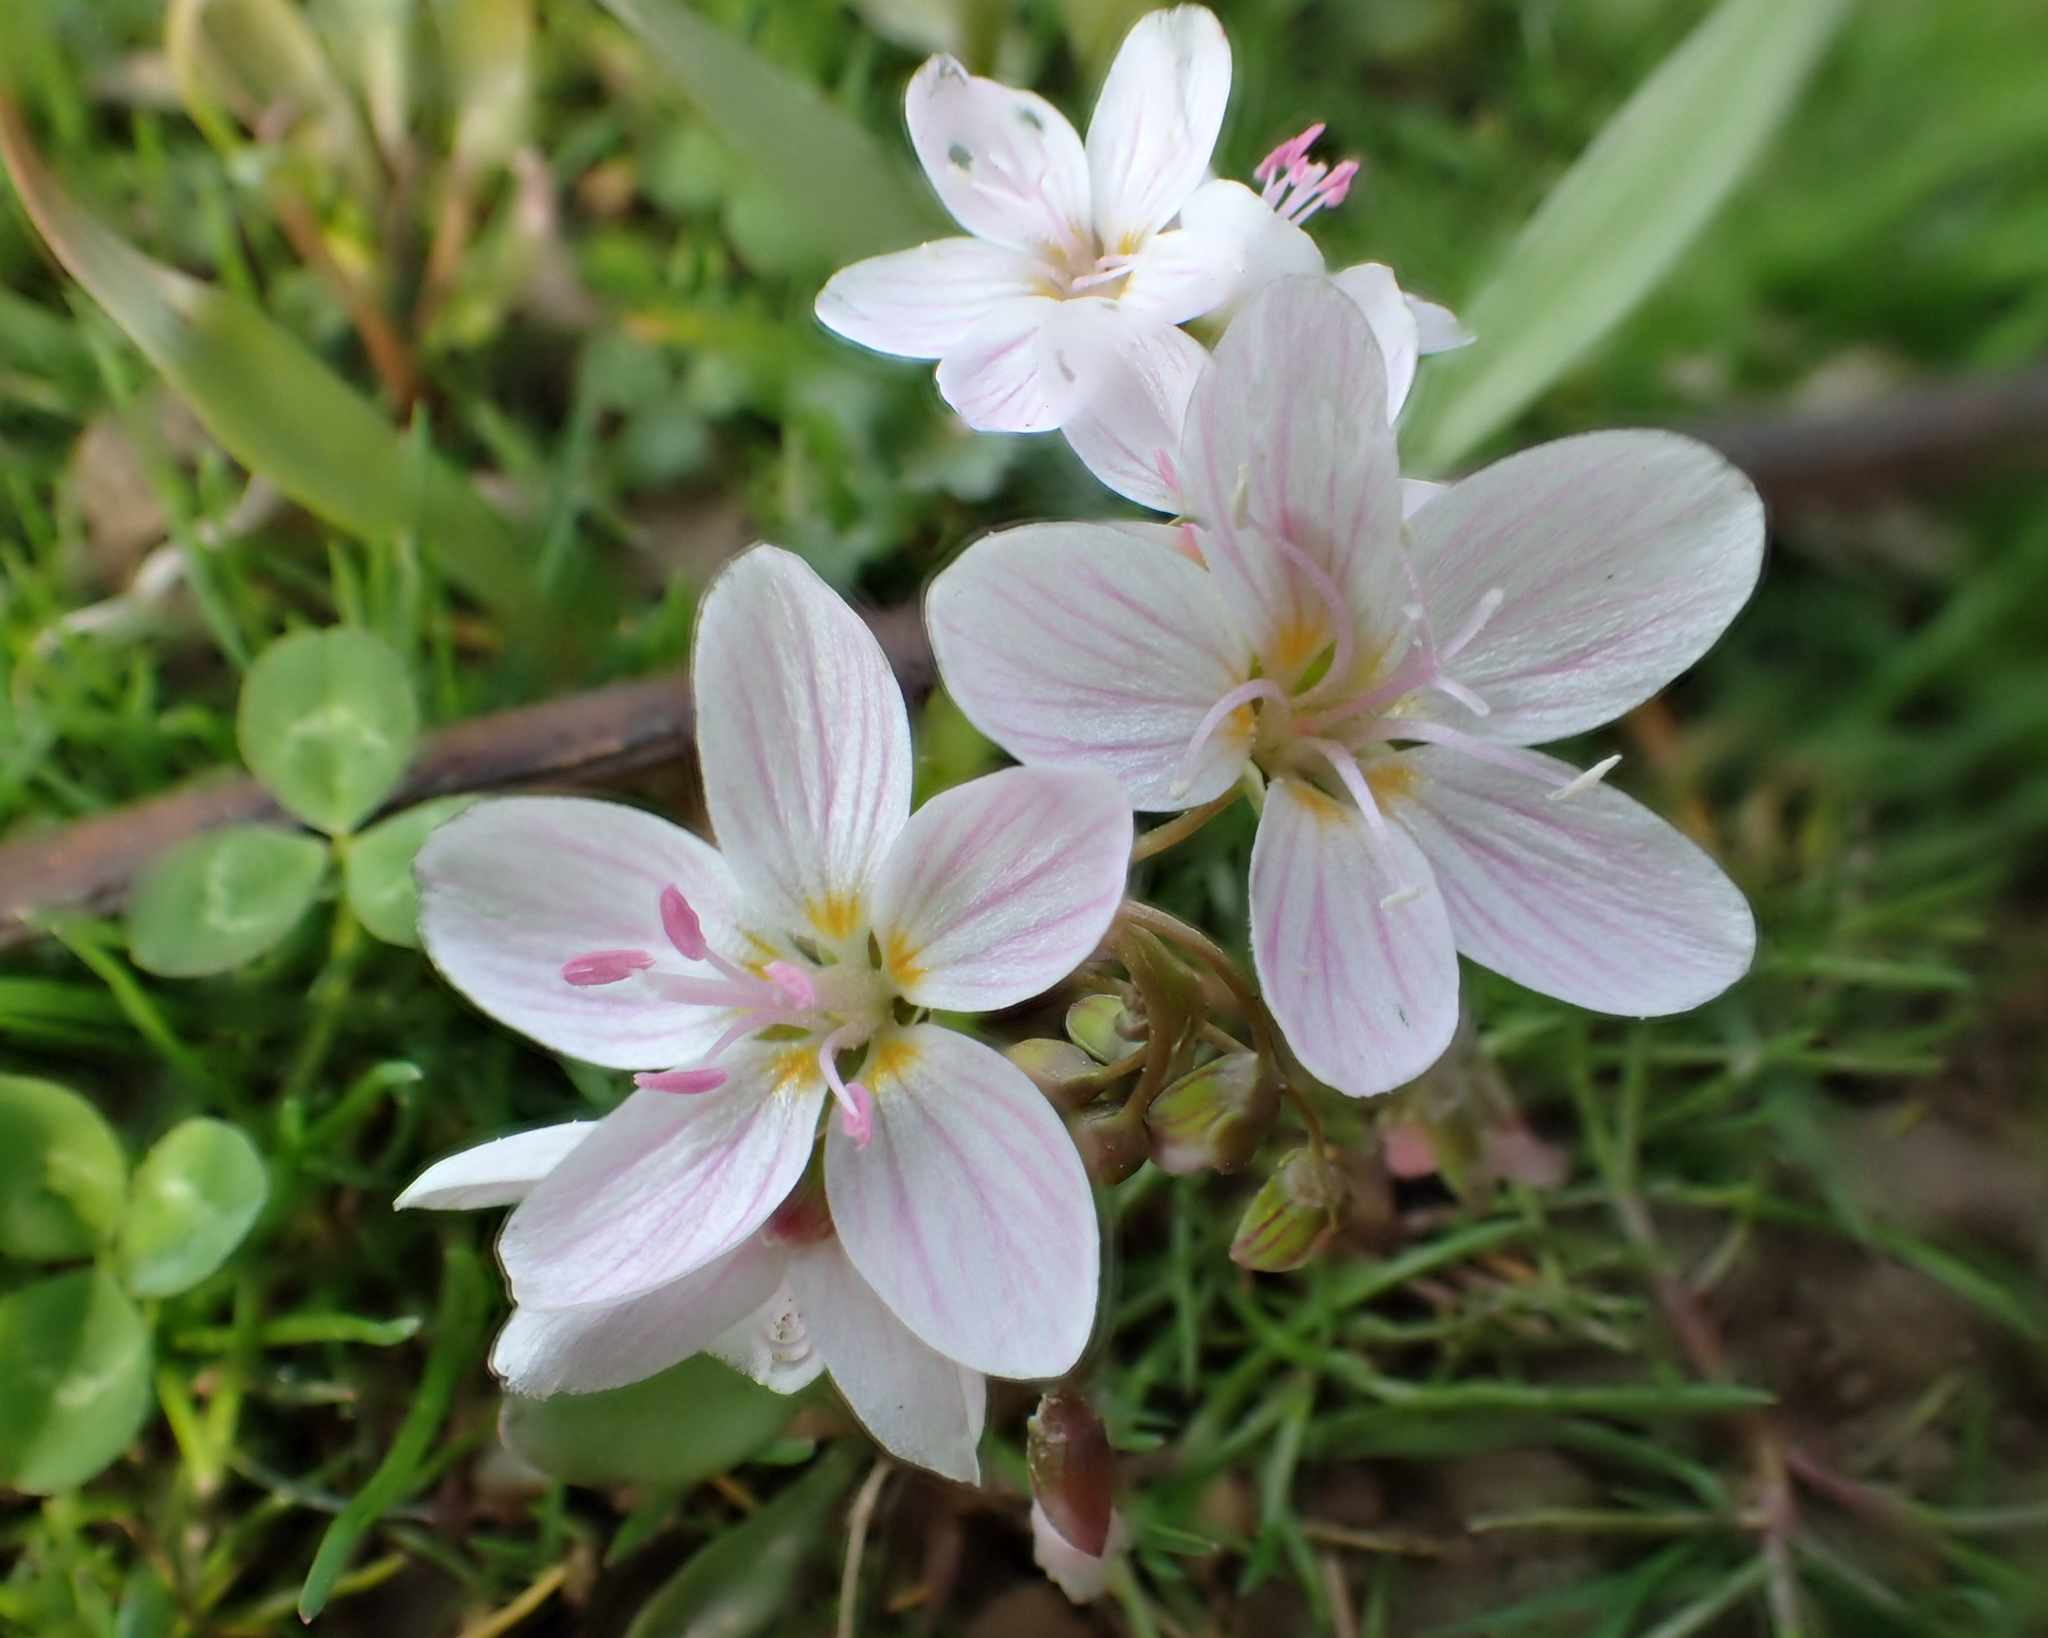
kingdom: Plantae
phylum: Tracheophyta
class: Magnoliopsida
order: Caryophyllales
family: Montiaceae
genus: Claytonia
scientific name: Claytonia virginica
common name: Virginia springbeauty
